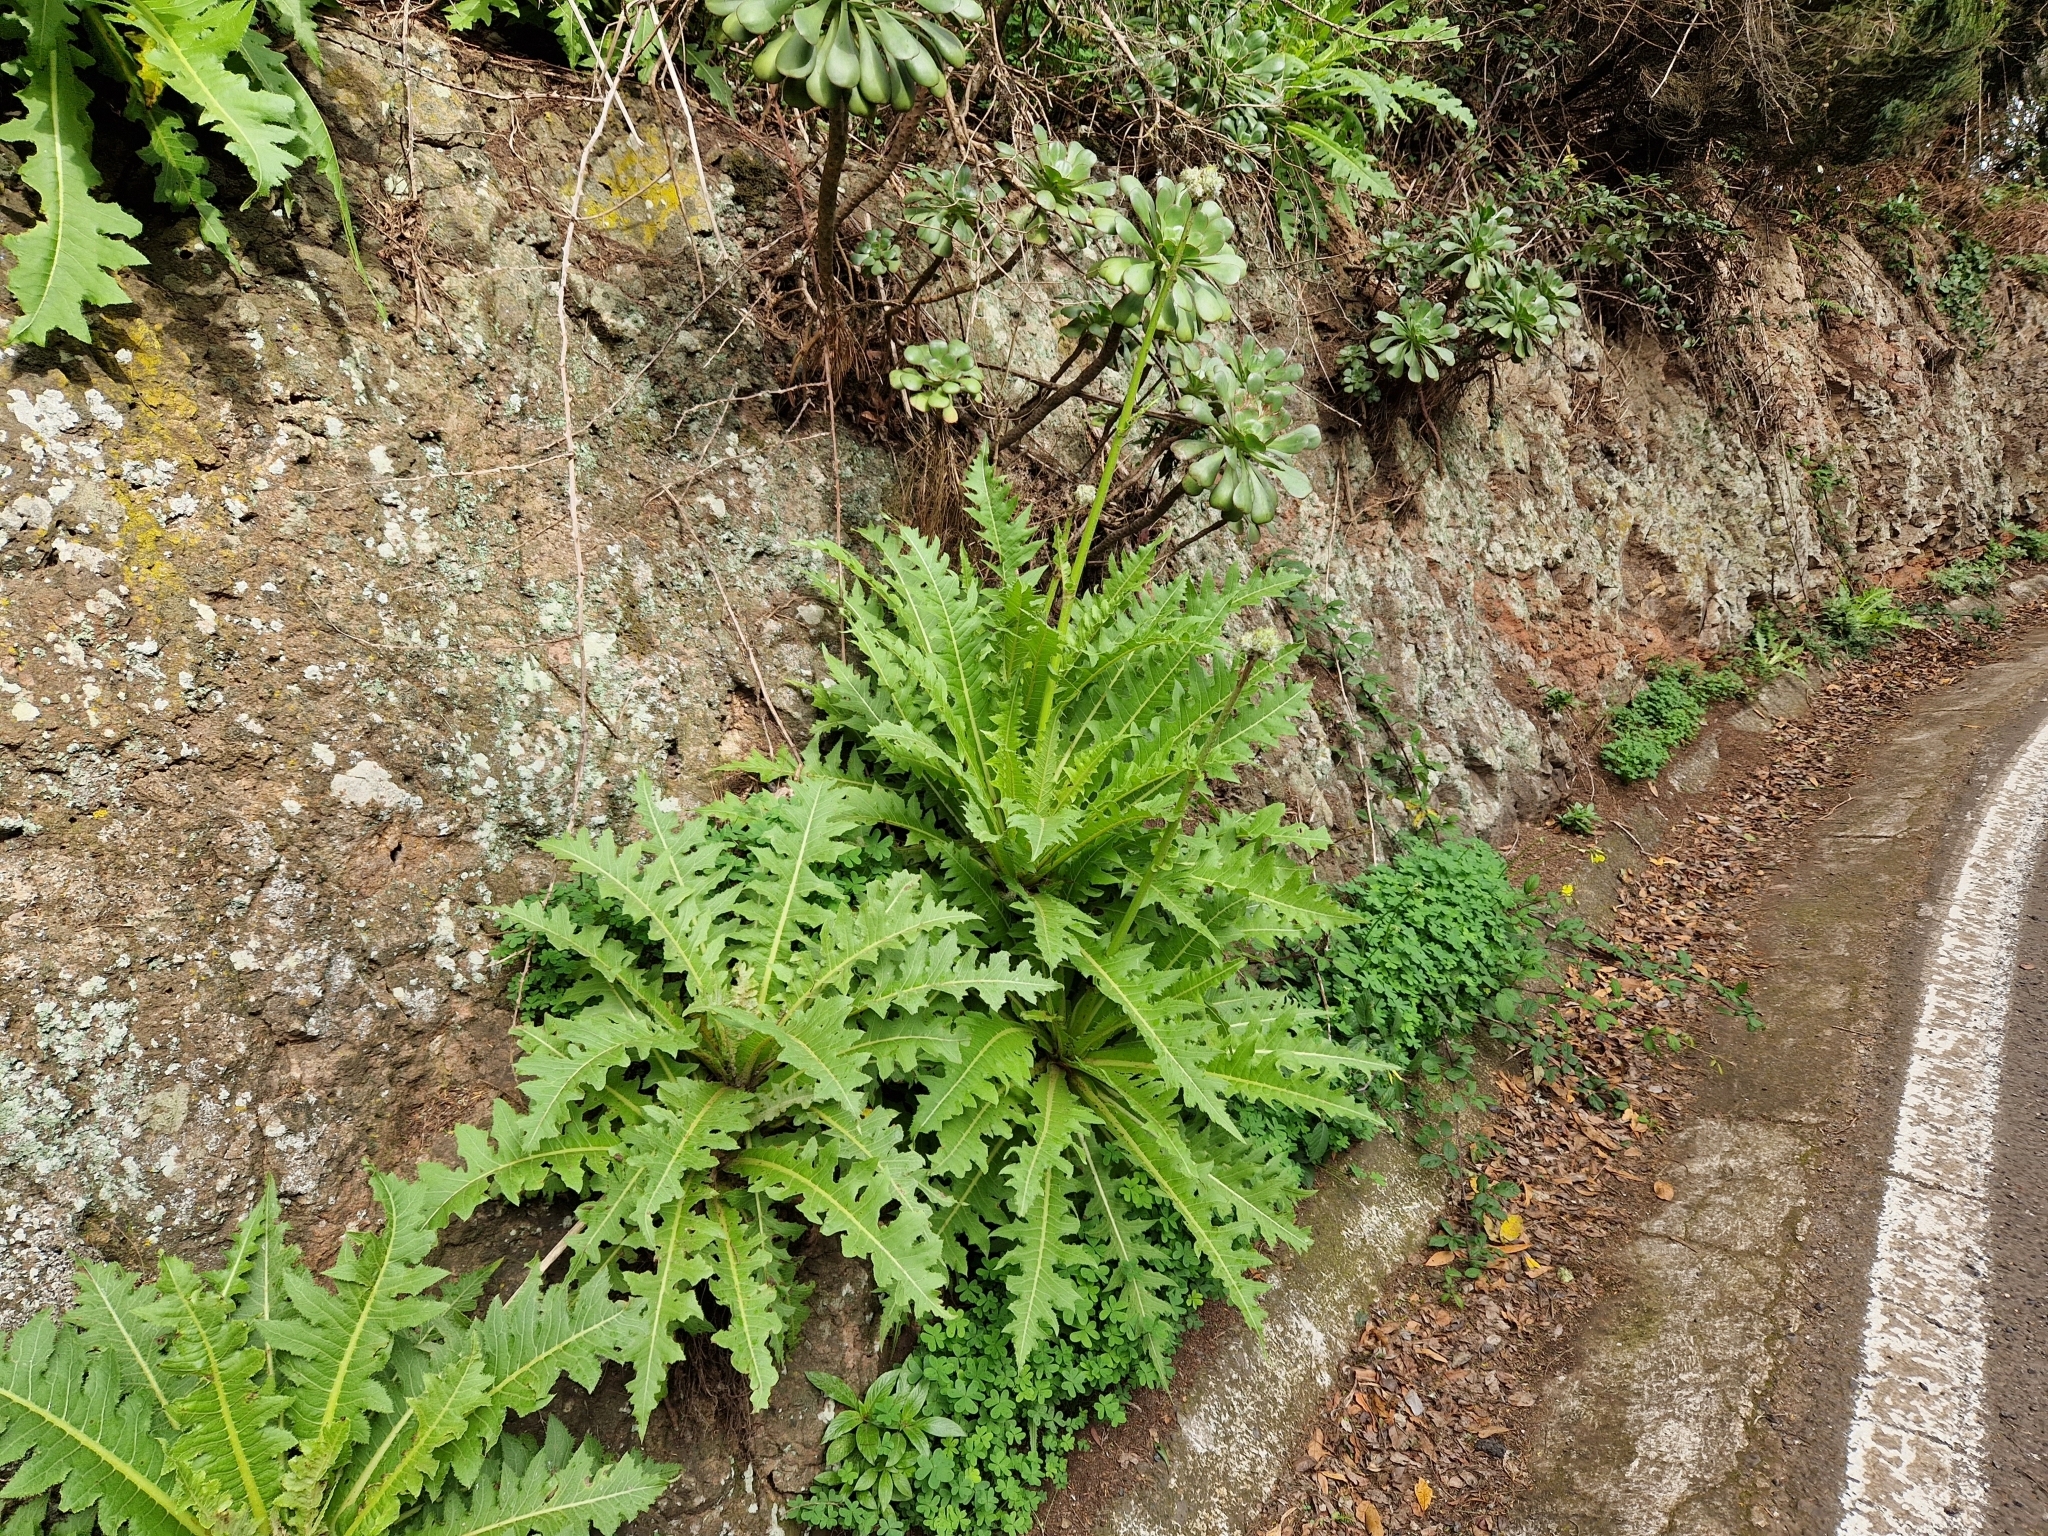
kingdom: Plantae
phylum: Tracheophyta
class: Magnoliopsida
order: Asterales
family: Asteraceae
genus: Sonchus
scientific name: Sonchus acaulis
